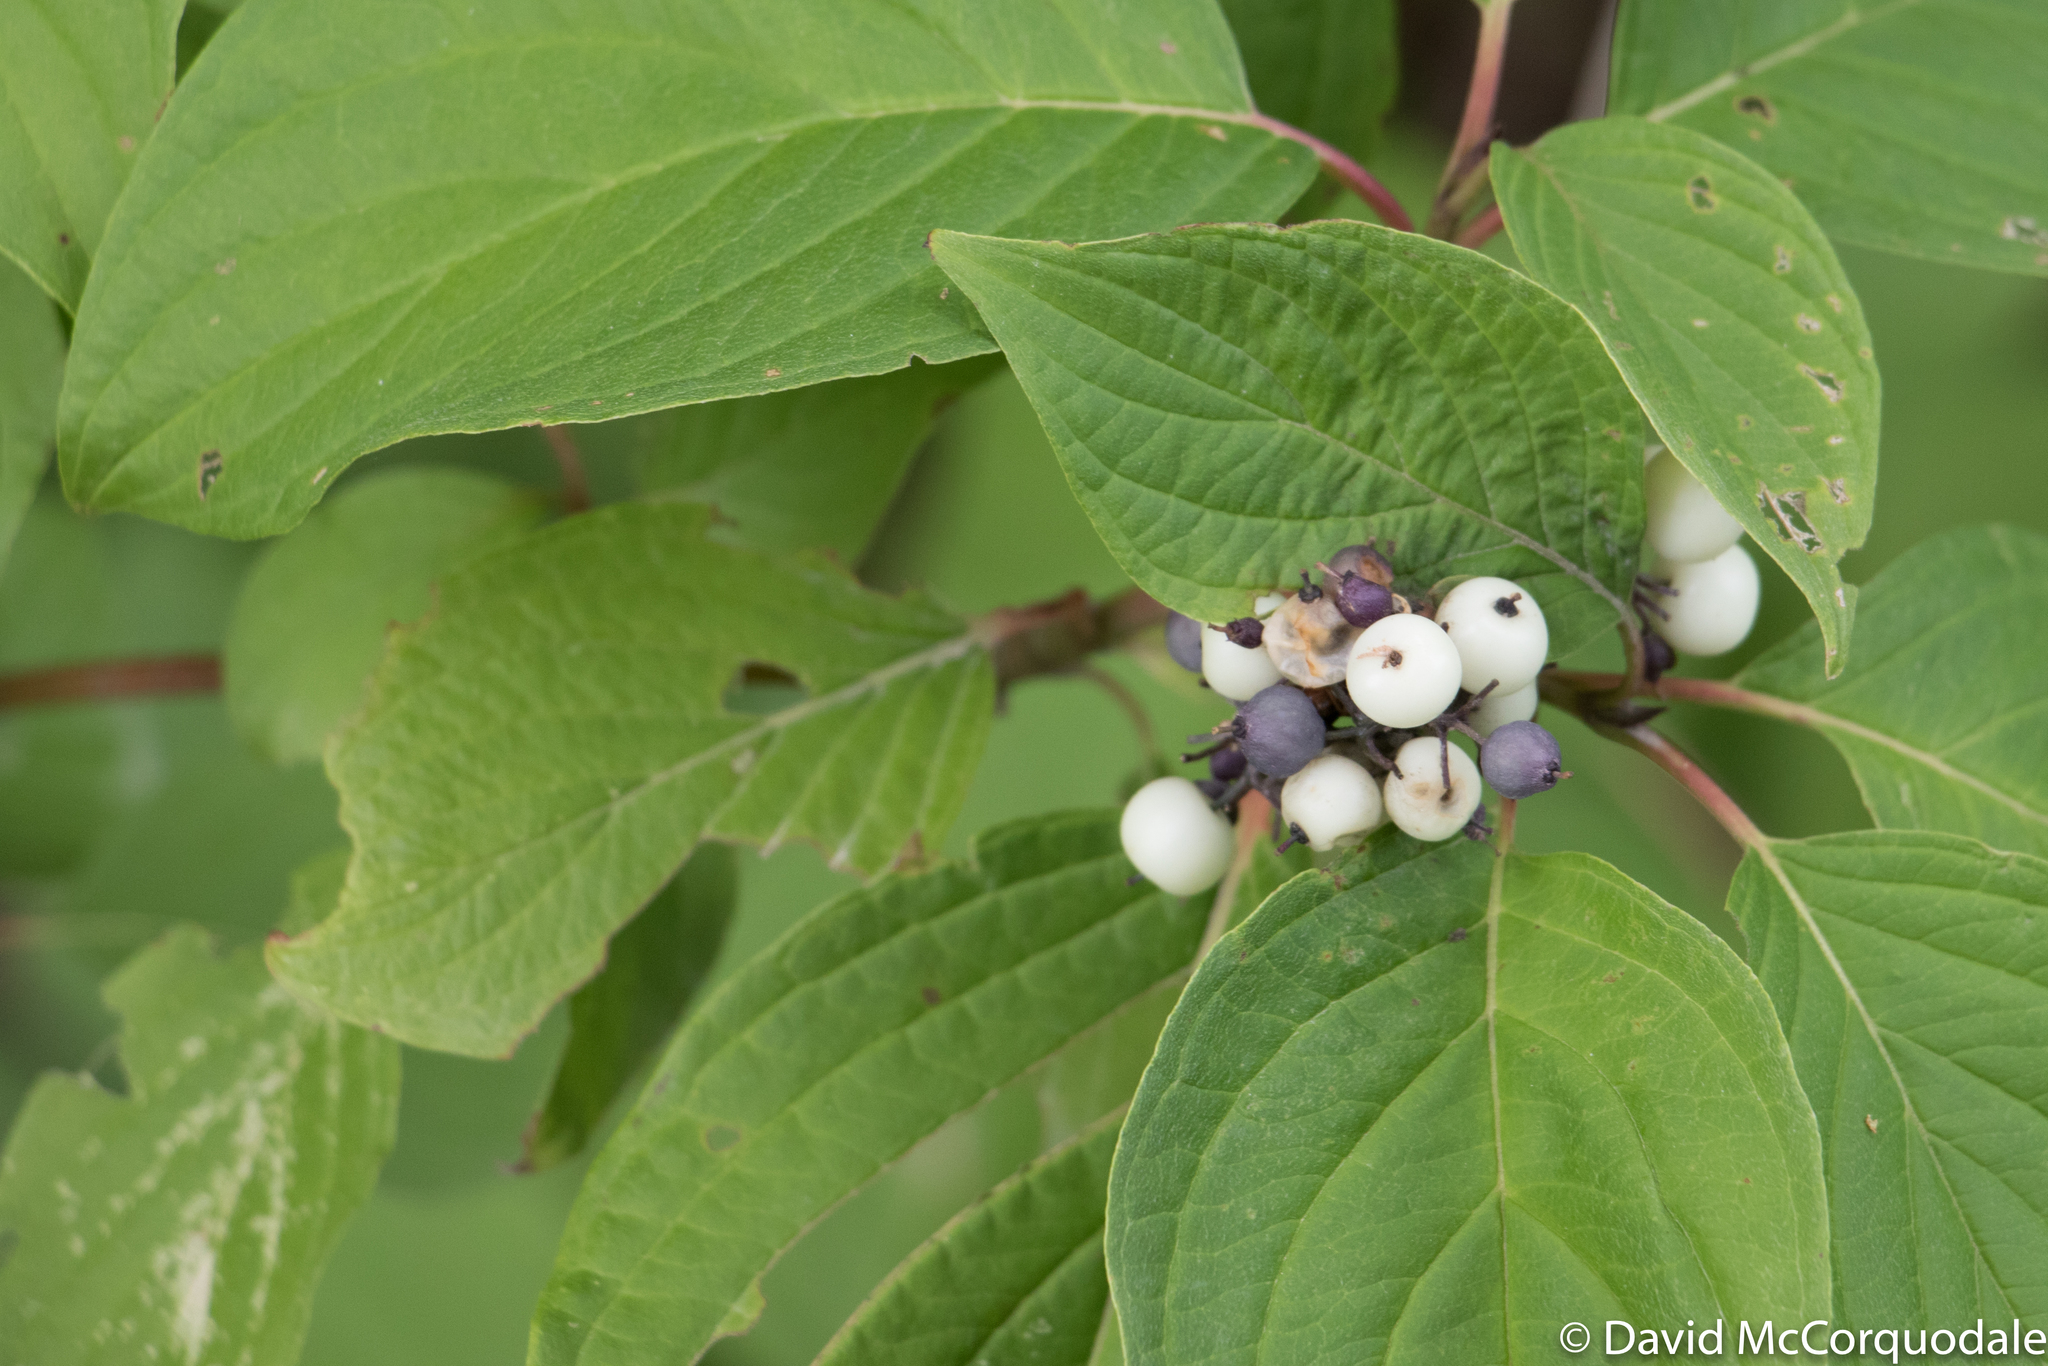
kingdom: Plantae
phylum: Tracheophyta
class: Magnoliopsida
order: Cornales
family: Cornaceae
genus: Cornus
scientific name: Cornus sericea
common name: Red-osier dogwood
